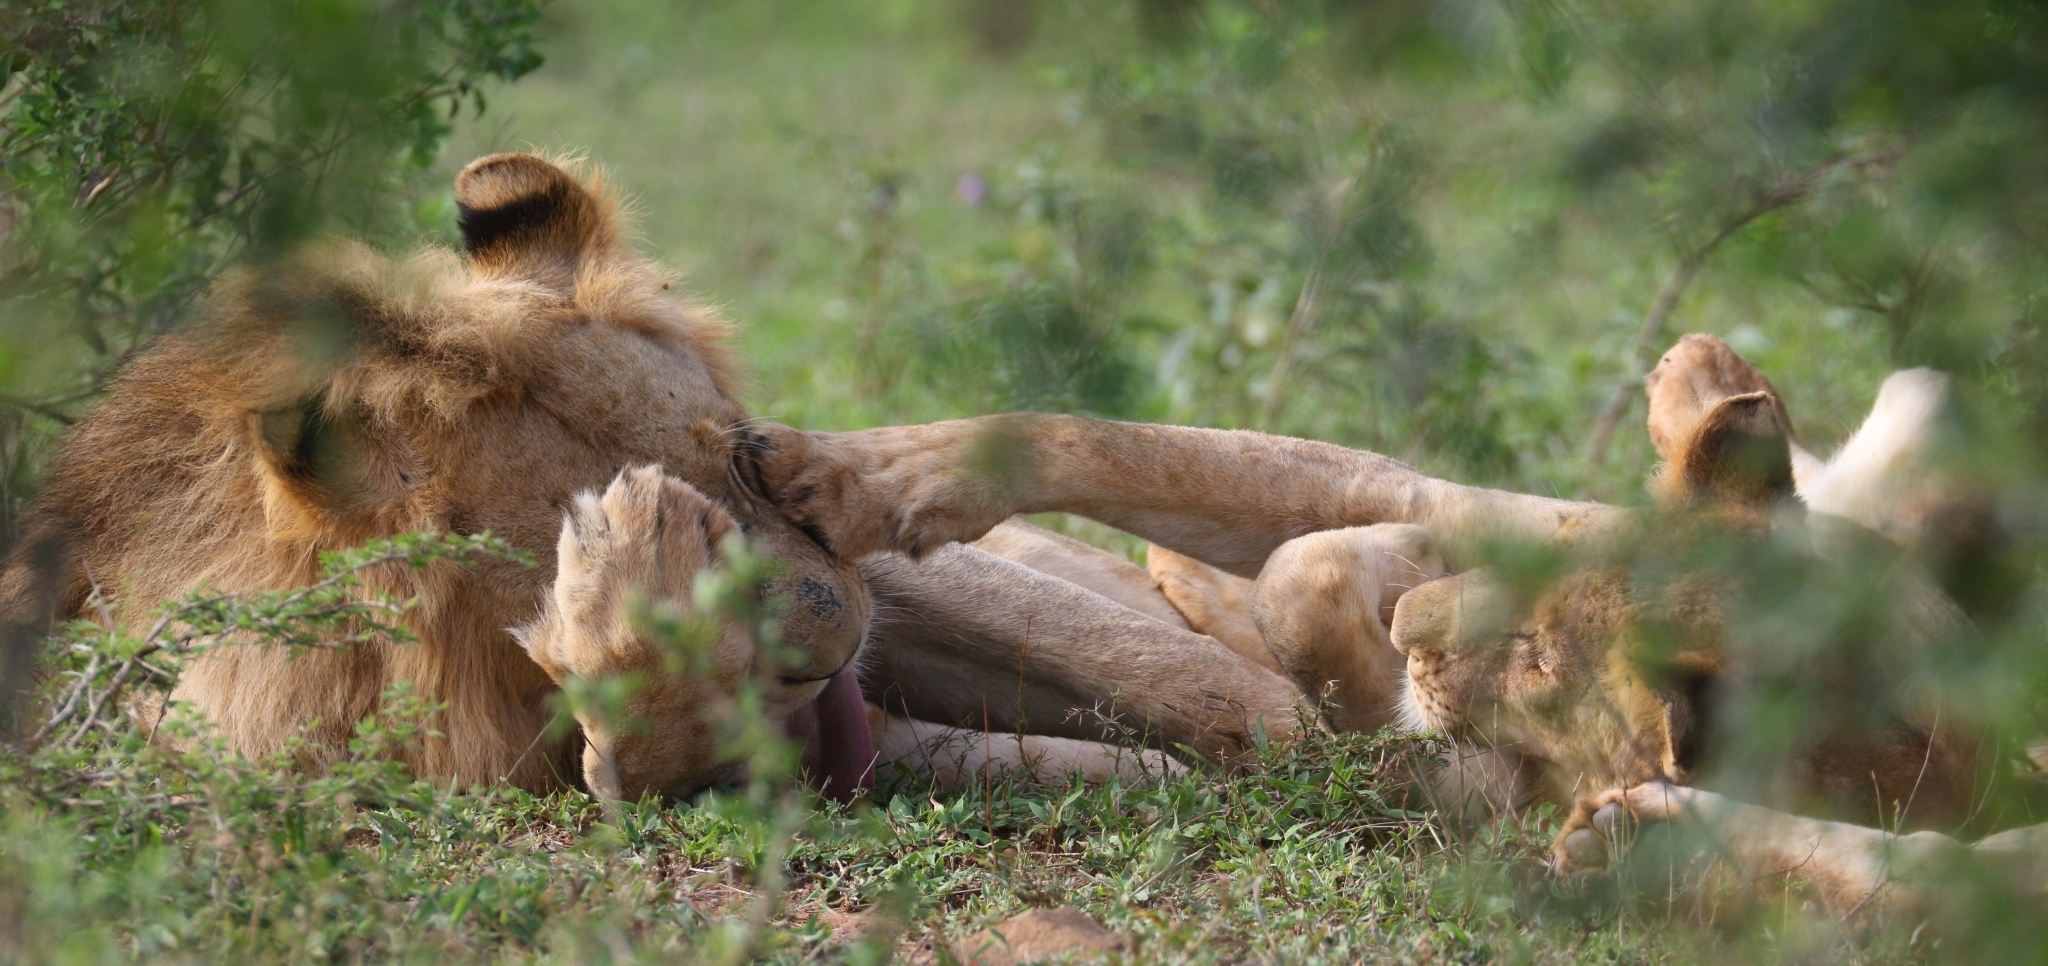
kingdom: Animalia
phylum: Chordata
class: Mammalia
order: Carnivora
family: Felidae
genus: Panthera
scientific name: Panthera leo
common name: Lion
